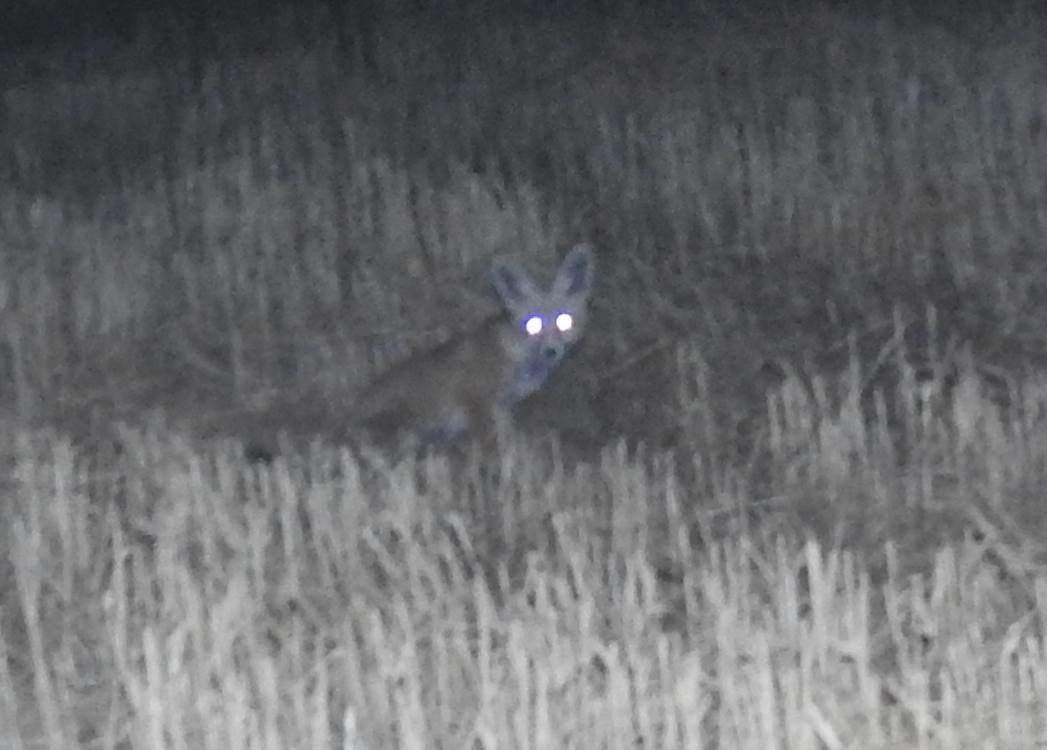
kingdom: Animalia
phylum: Chordata
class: Mammalia
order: Carnivora
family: Canidae
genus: Vulpes
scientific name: Vulpes vulpes
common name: Red fox
